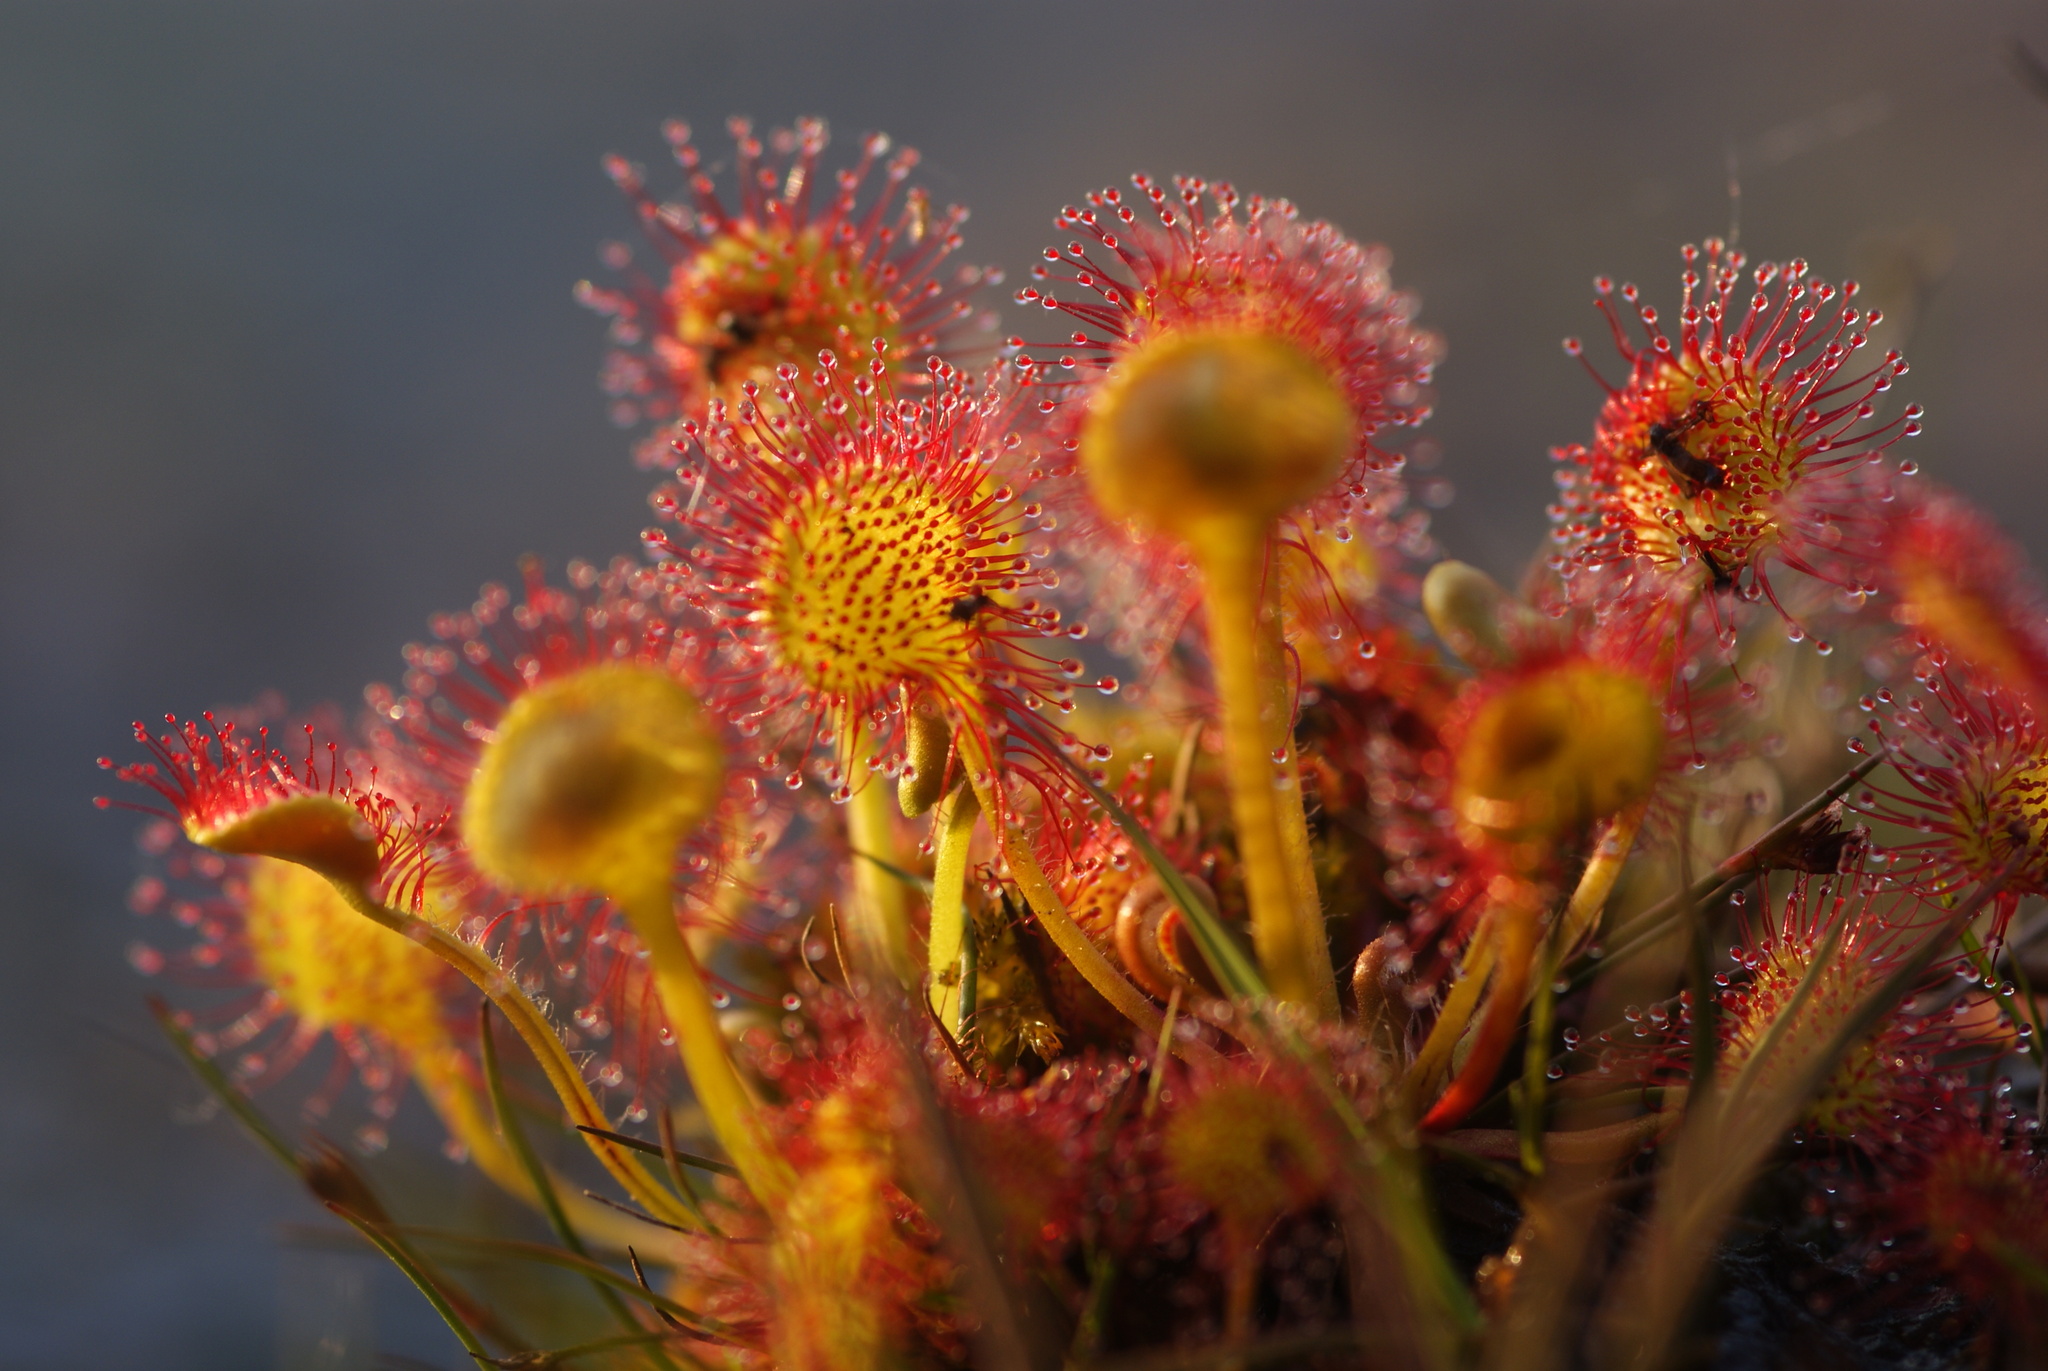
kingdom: Plantae
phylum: Tracheophyta
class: Magnoliopsida
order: Caryophyllales
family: Droseraceae
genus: Drosera
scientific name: Drosera rotundifolia
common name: Round-leaved sundew
